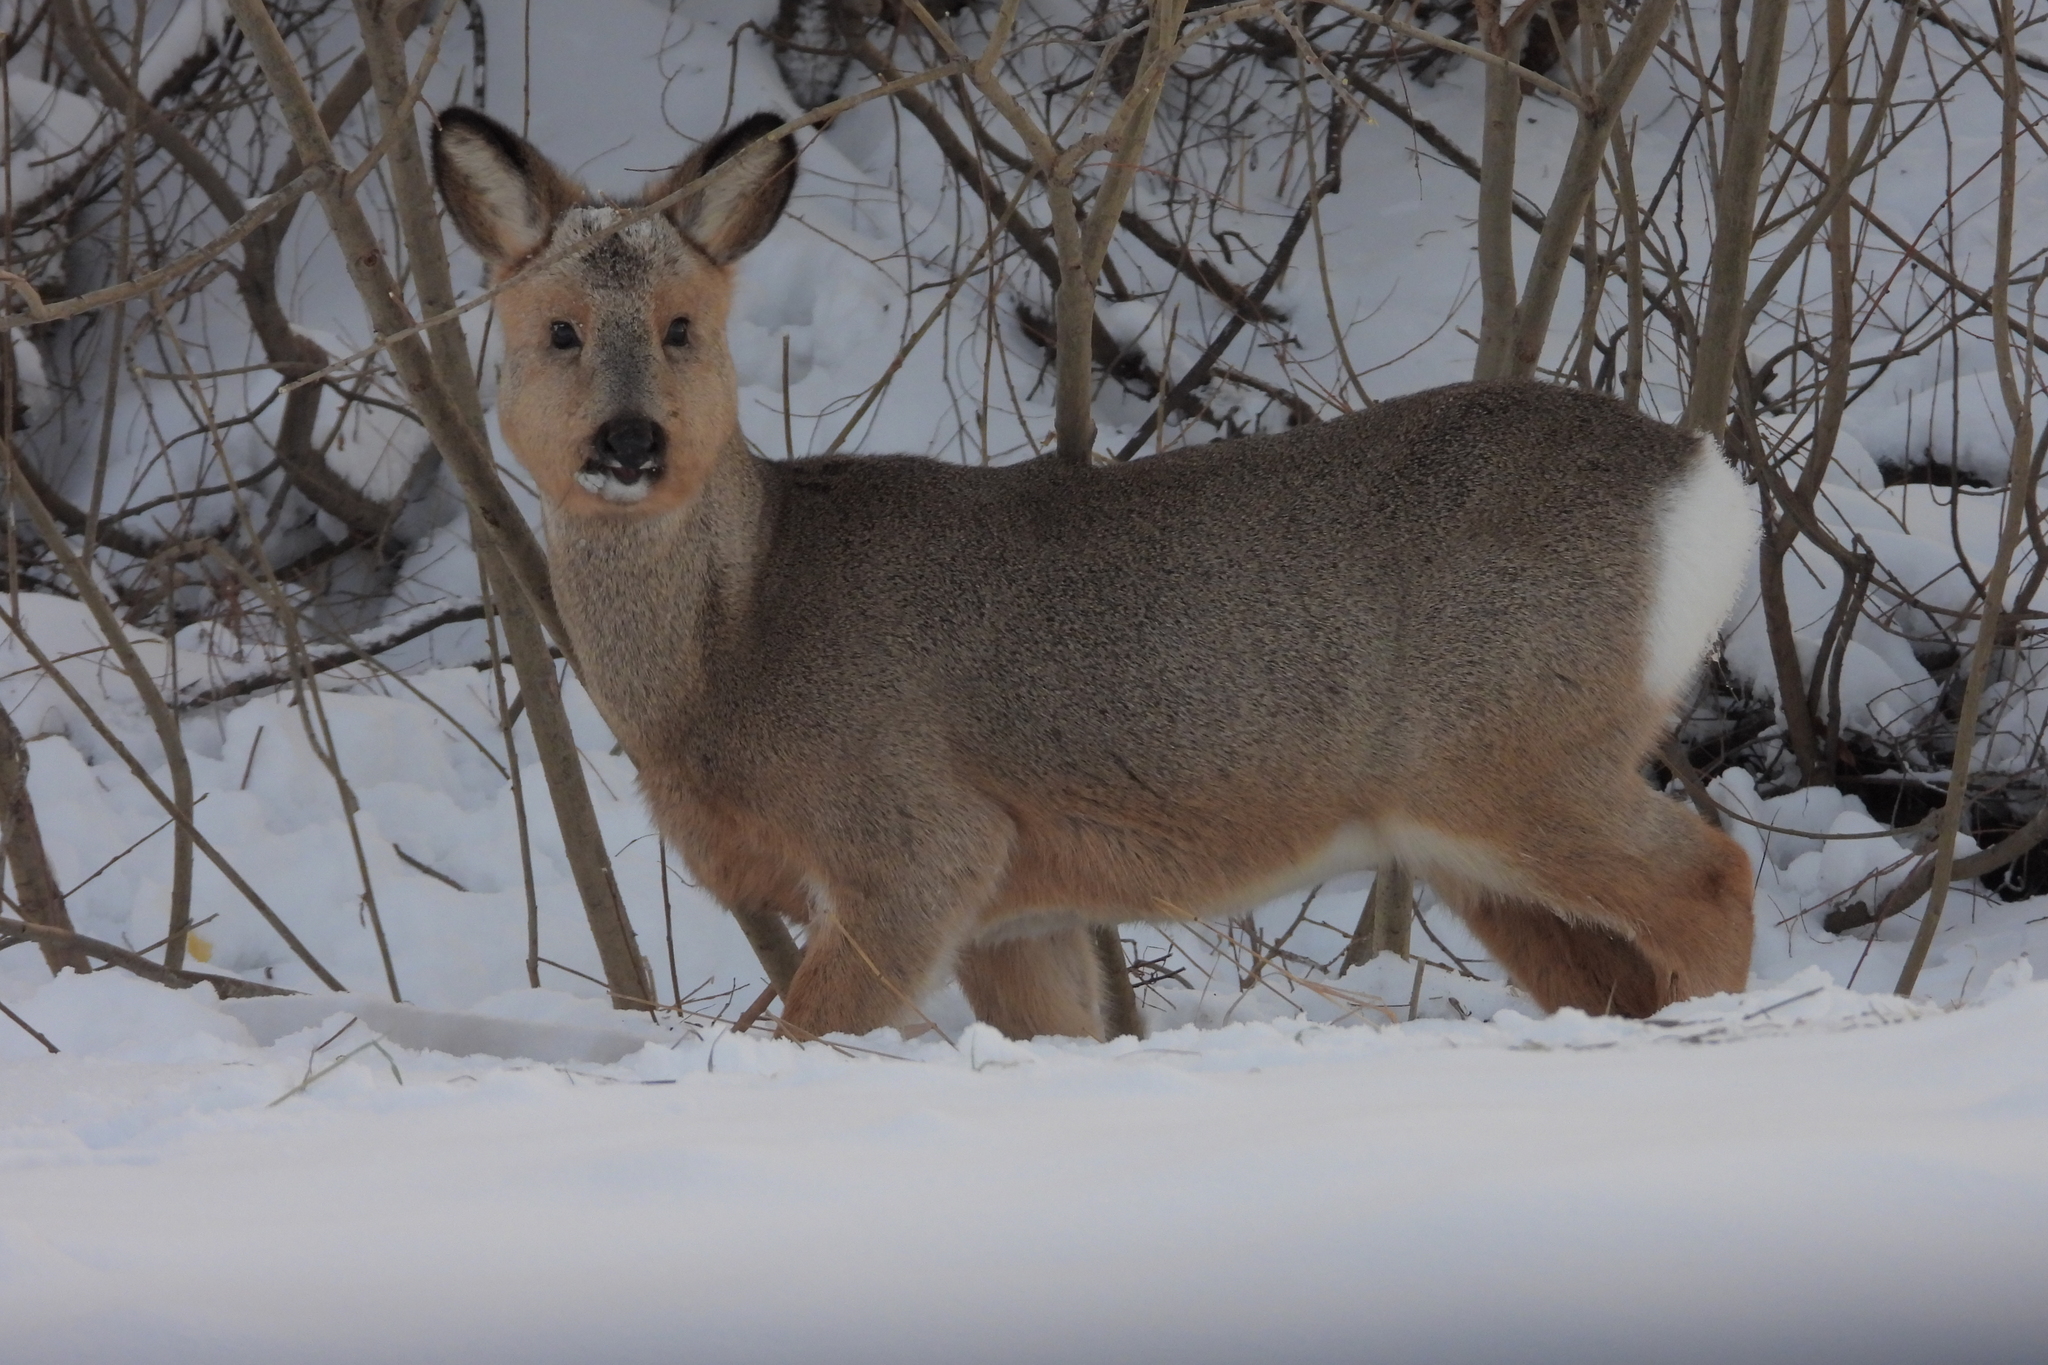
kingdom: Animalia
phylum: Chordata
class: Mammalia
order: Artiodactyla
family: Cervidae
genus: Capreolus
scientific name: Capreolus pygargus
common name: Siberian roe
